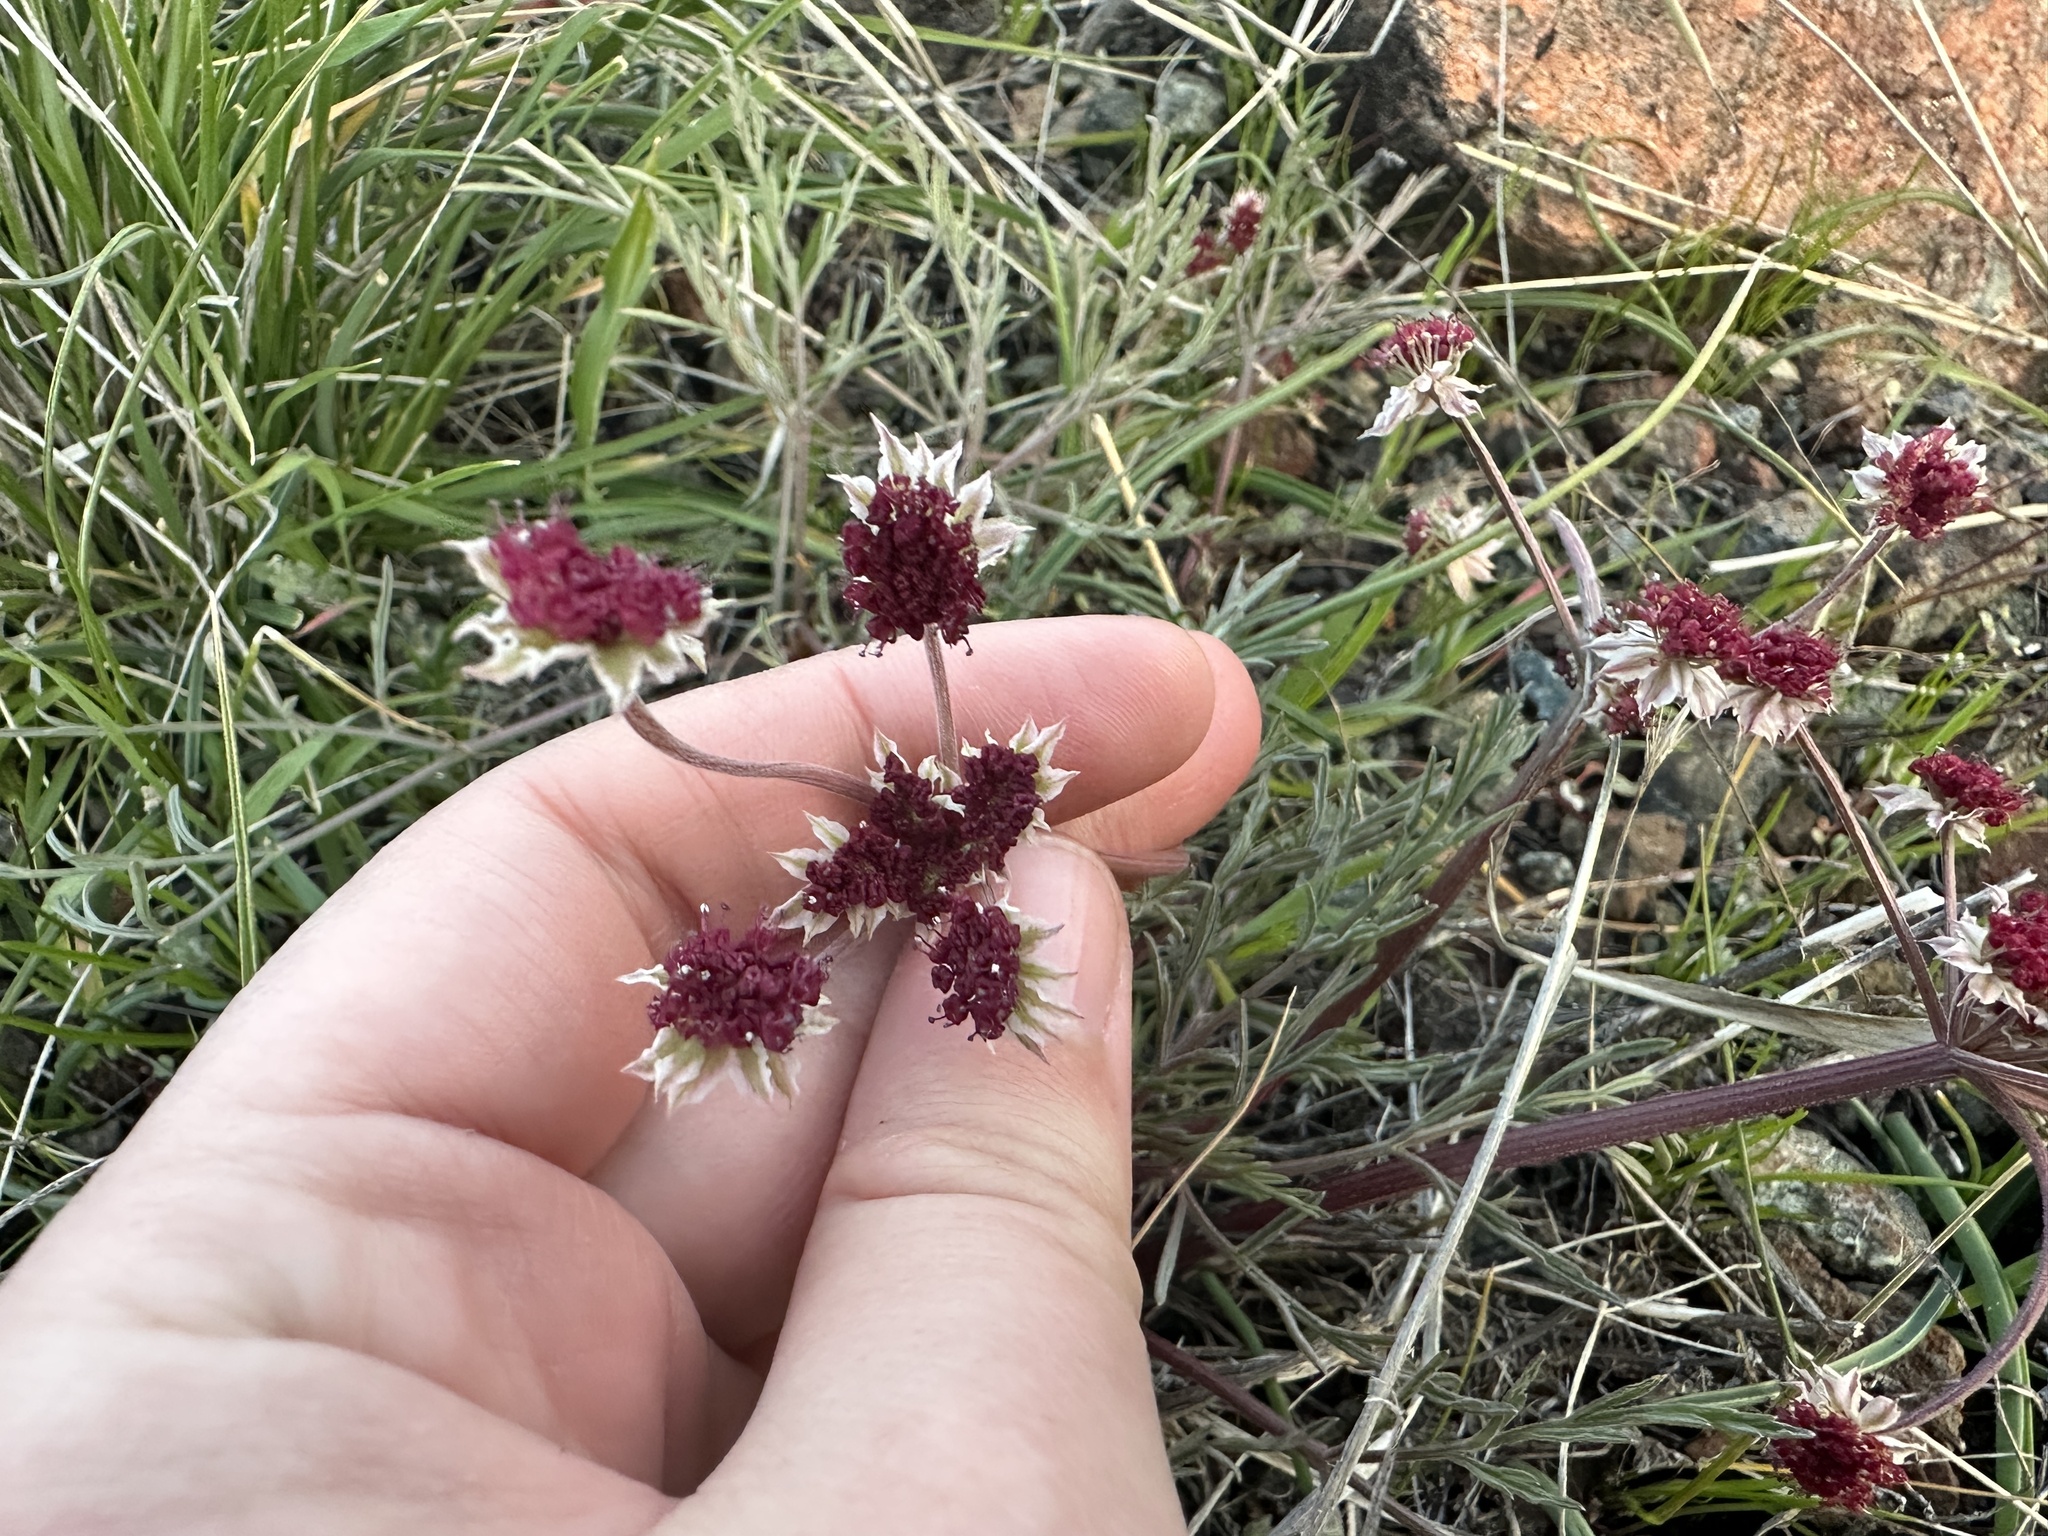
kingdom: Plantae
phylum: Tracheophyta
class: Magnoliopsida
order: Apiales
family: Apiaceae
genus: Lomatium
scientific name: Lomatium hooveri
